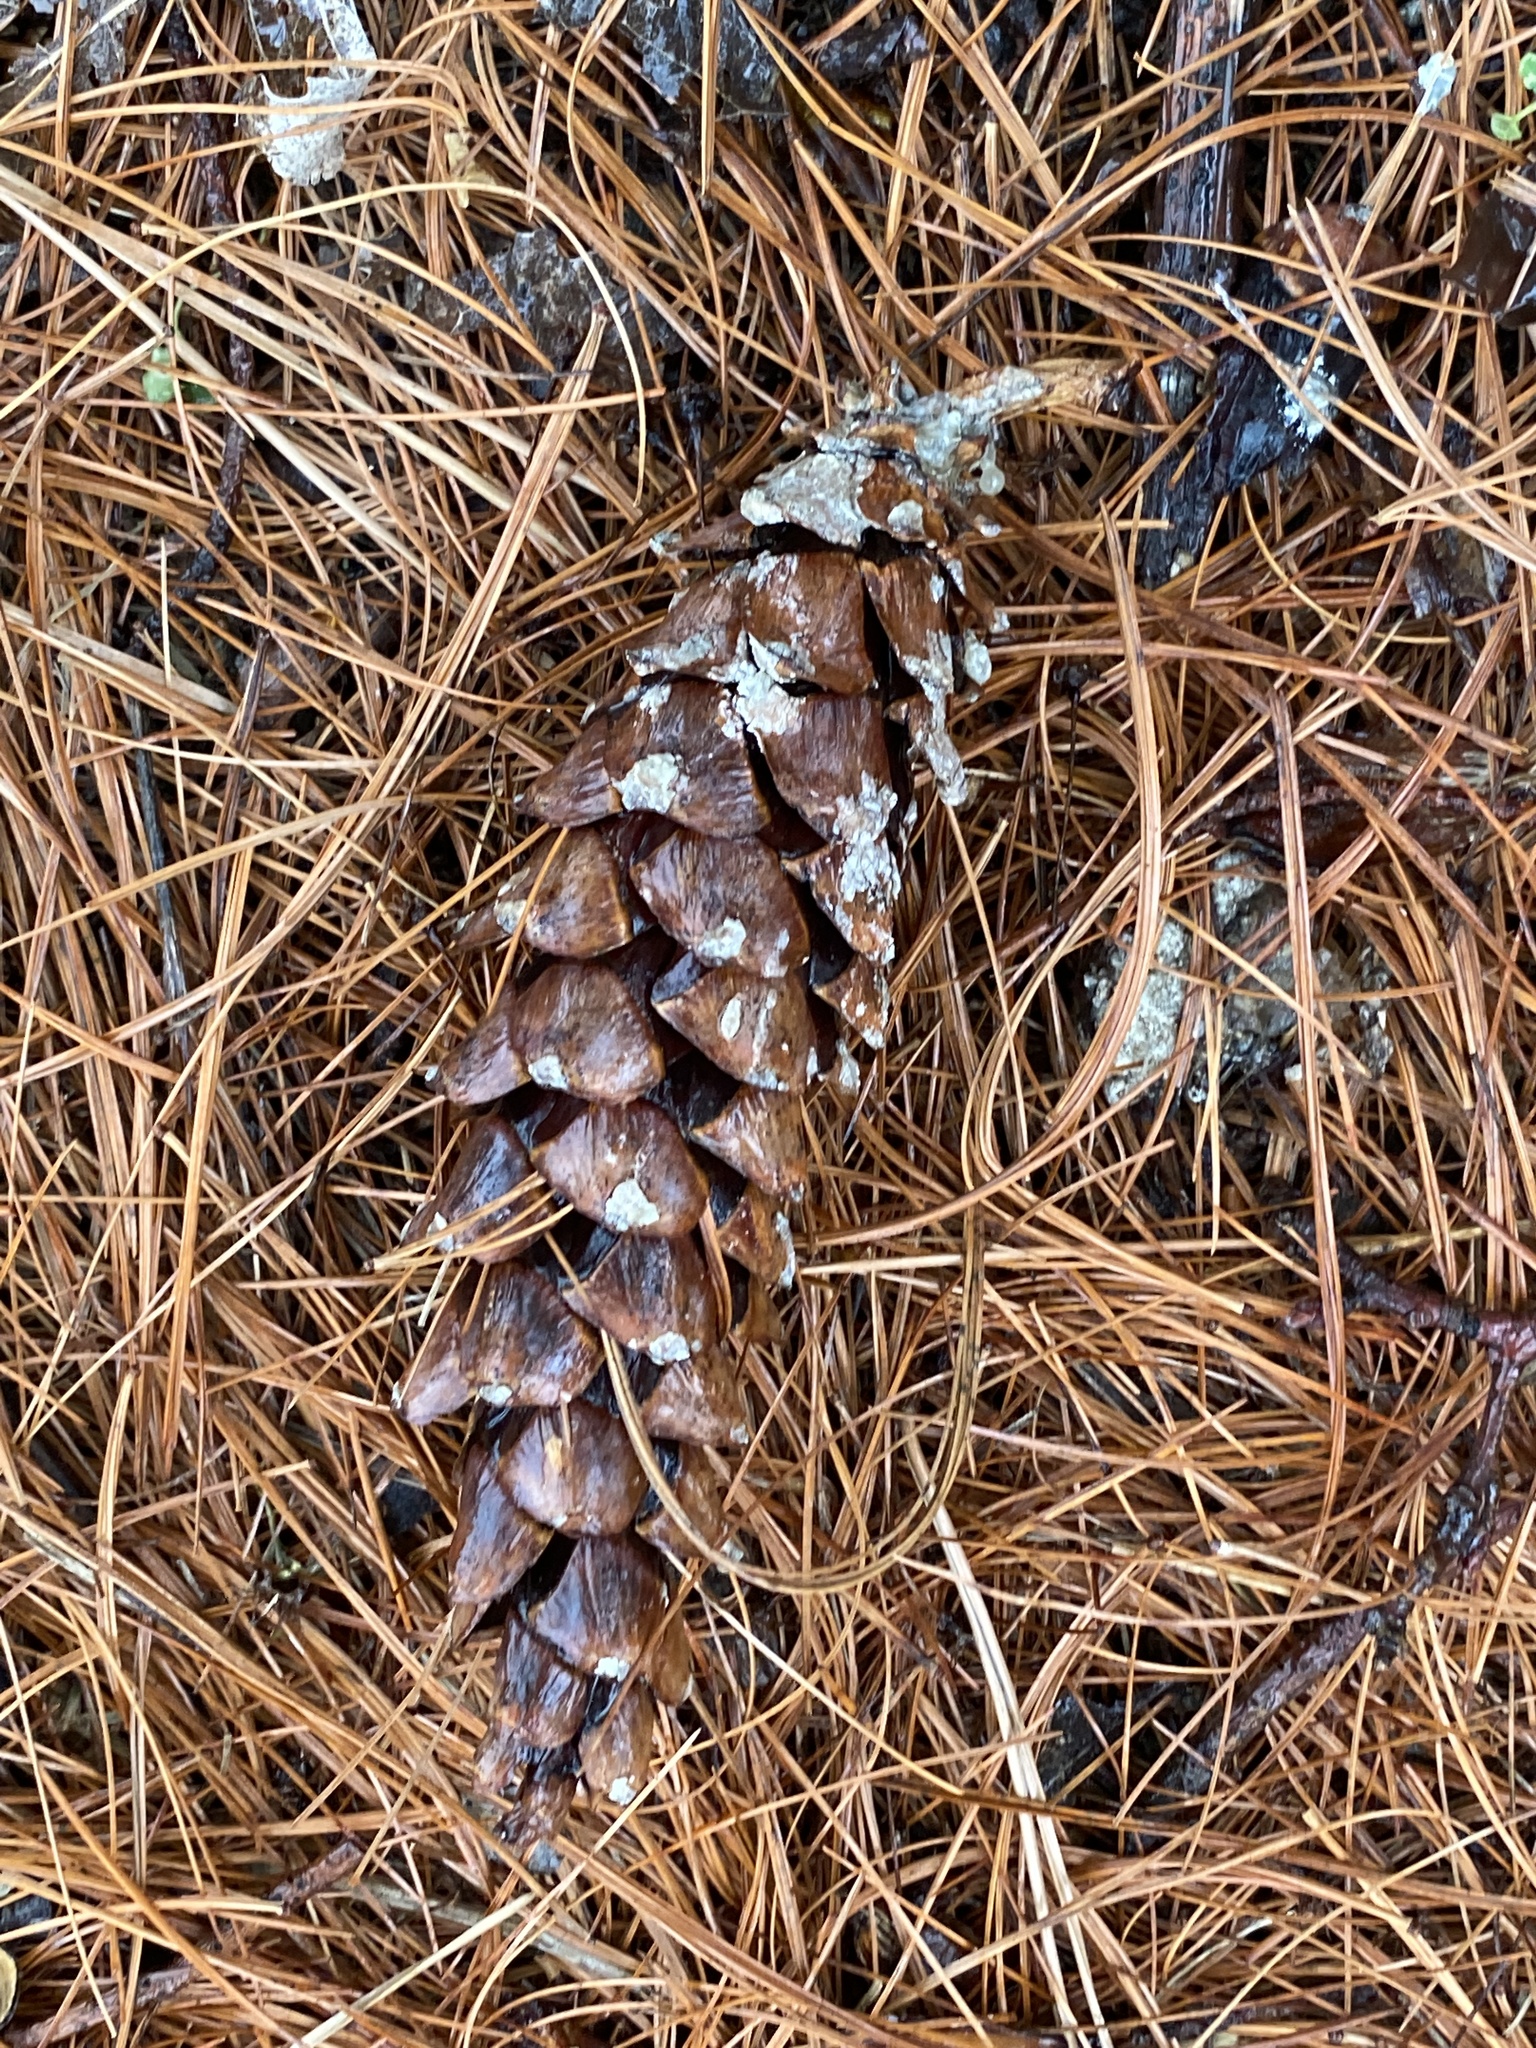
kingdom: Plantae
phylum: Tracheophyta
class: Pinopsida
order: Pinales
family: Pinaceae
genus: Pinus
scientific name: Pinus strobus
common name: Weymouth pine
